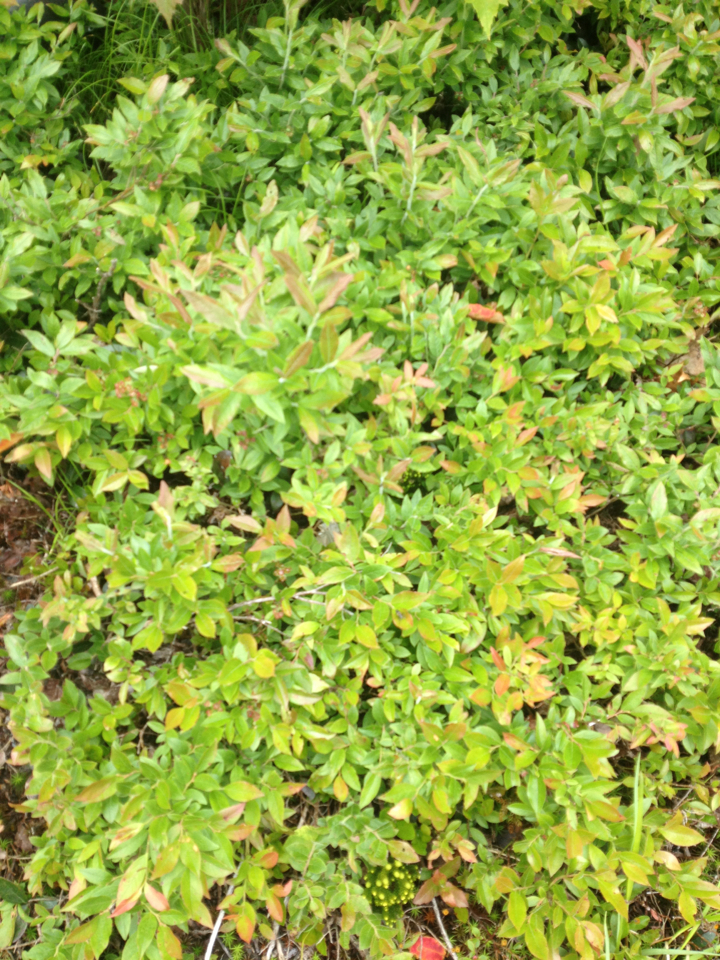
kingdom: Plantae
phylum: Tracheophyta
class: Magnoliopsida
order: Ericales
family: Ericaceae
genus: Vaccinium
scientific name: Vaccinium angustifolium
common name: Early lowbush blueberry
